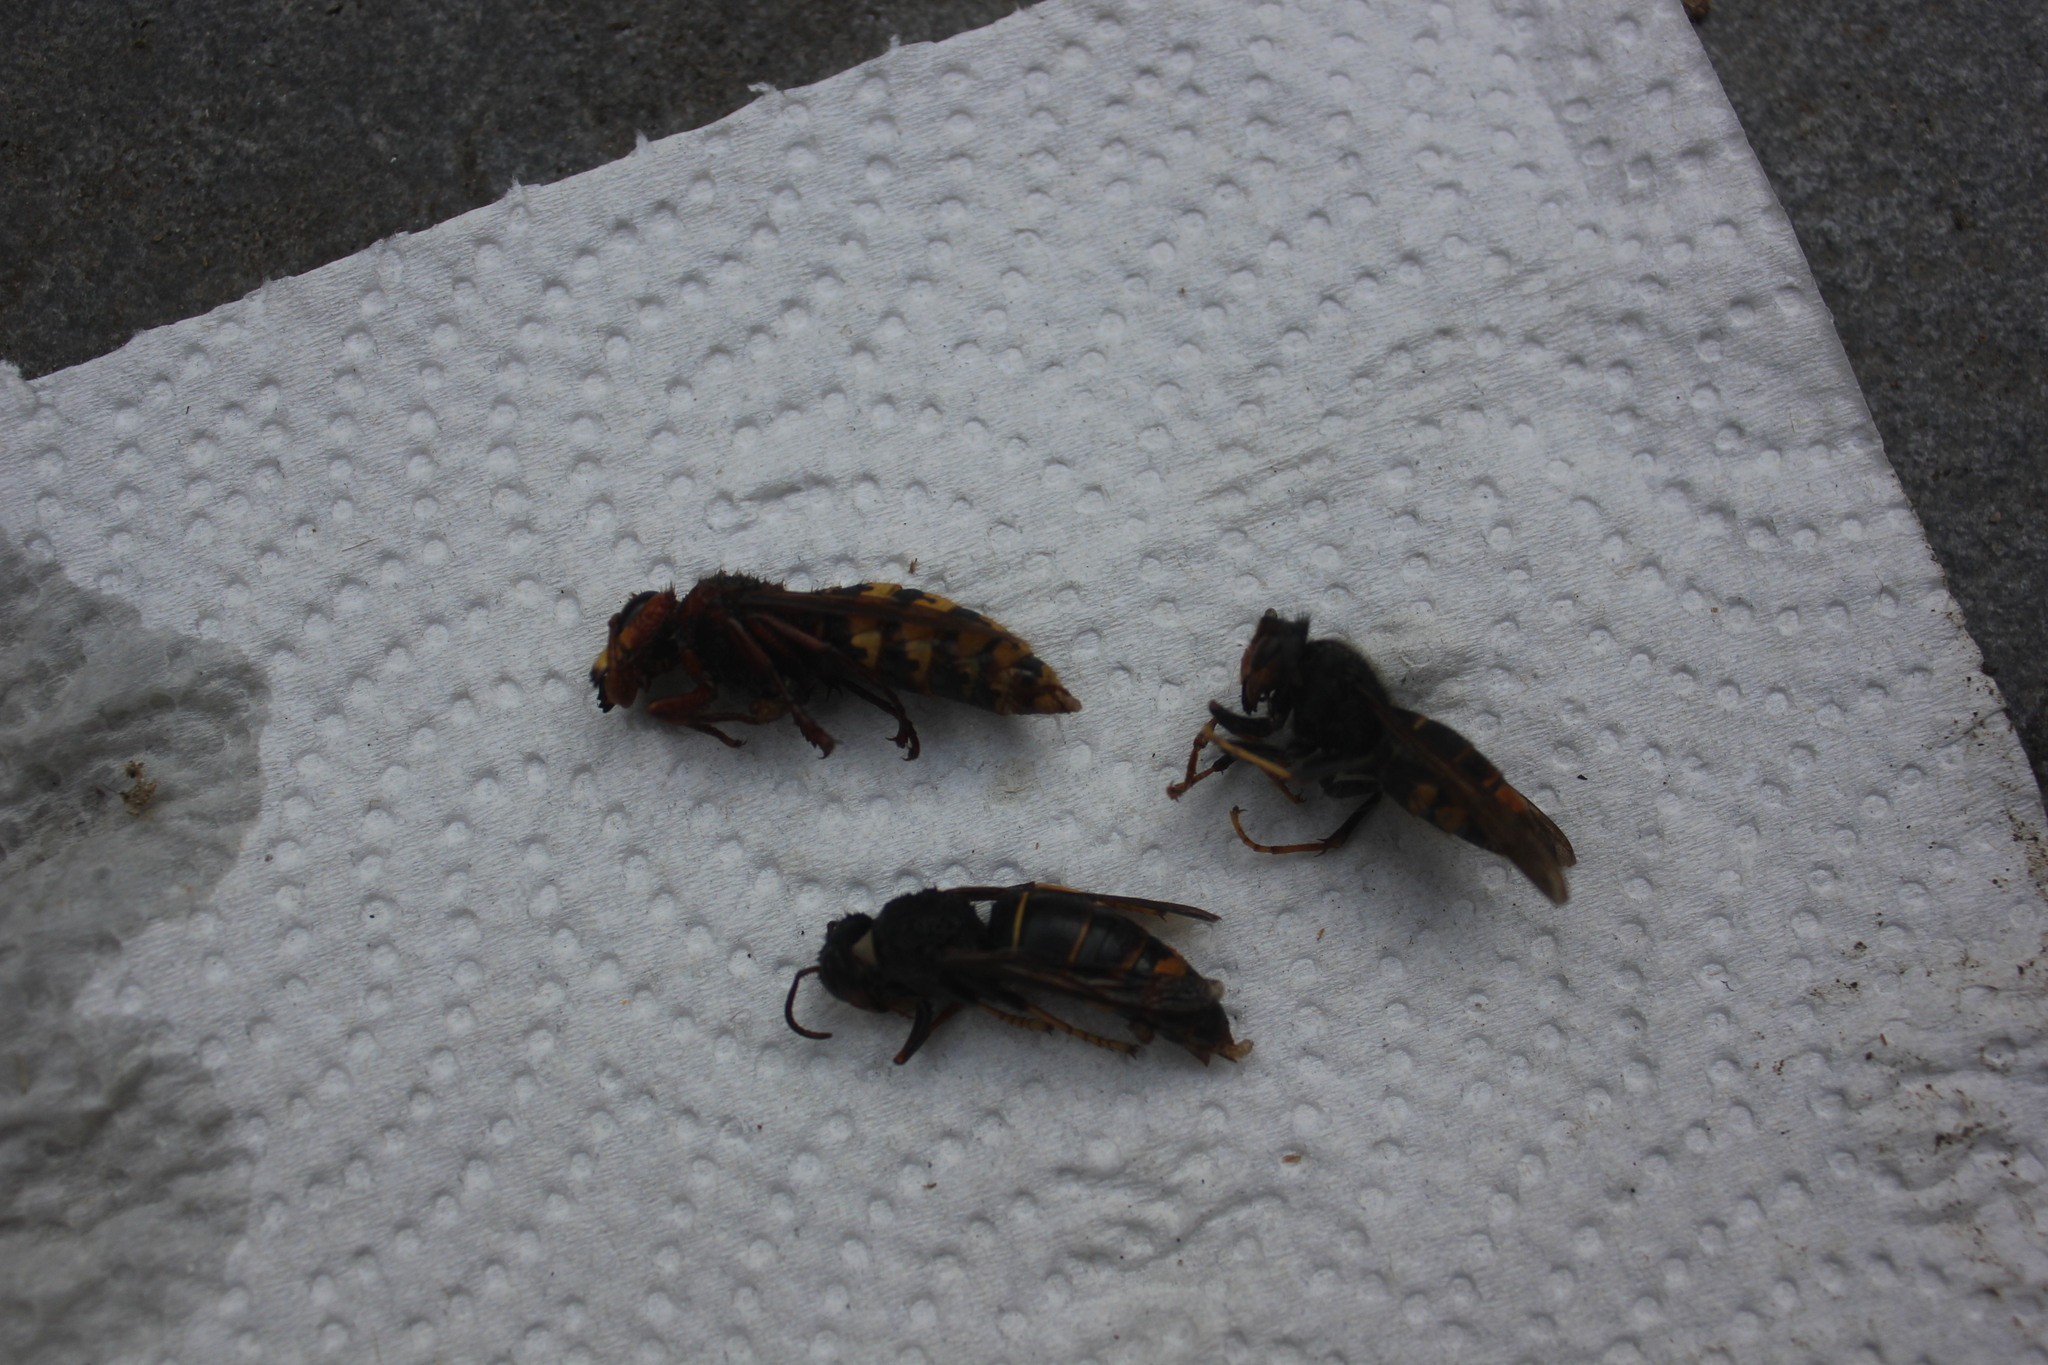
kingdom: Animalia
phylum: Arthropoda
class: Insecta
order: Hymenoptera
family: Vespidae
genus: Vespa
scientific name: Vespa velutina
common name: Asian hornet
